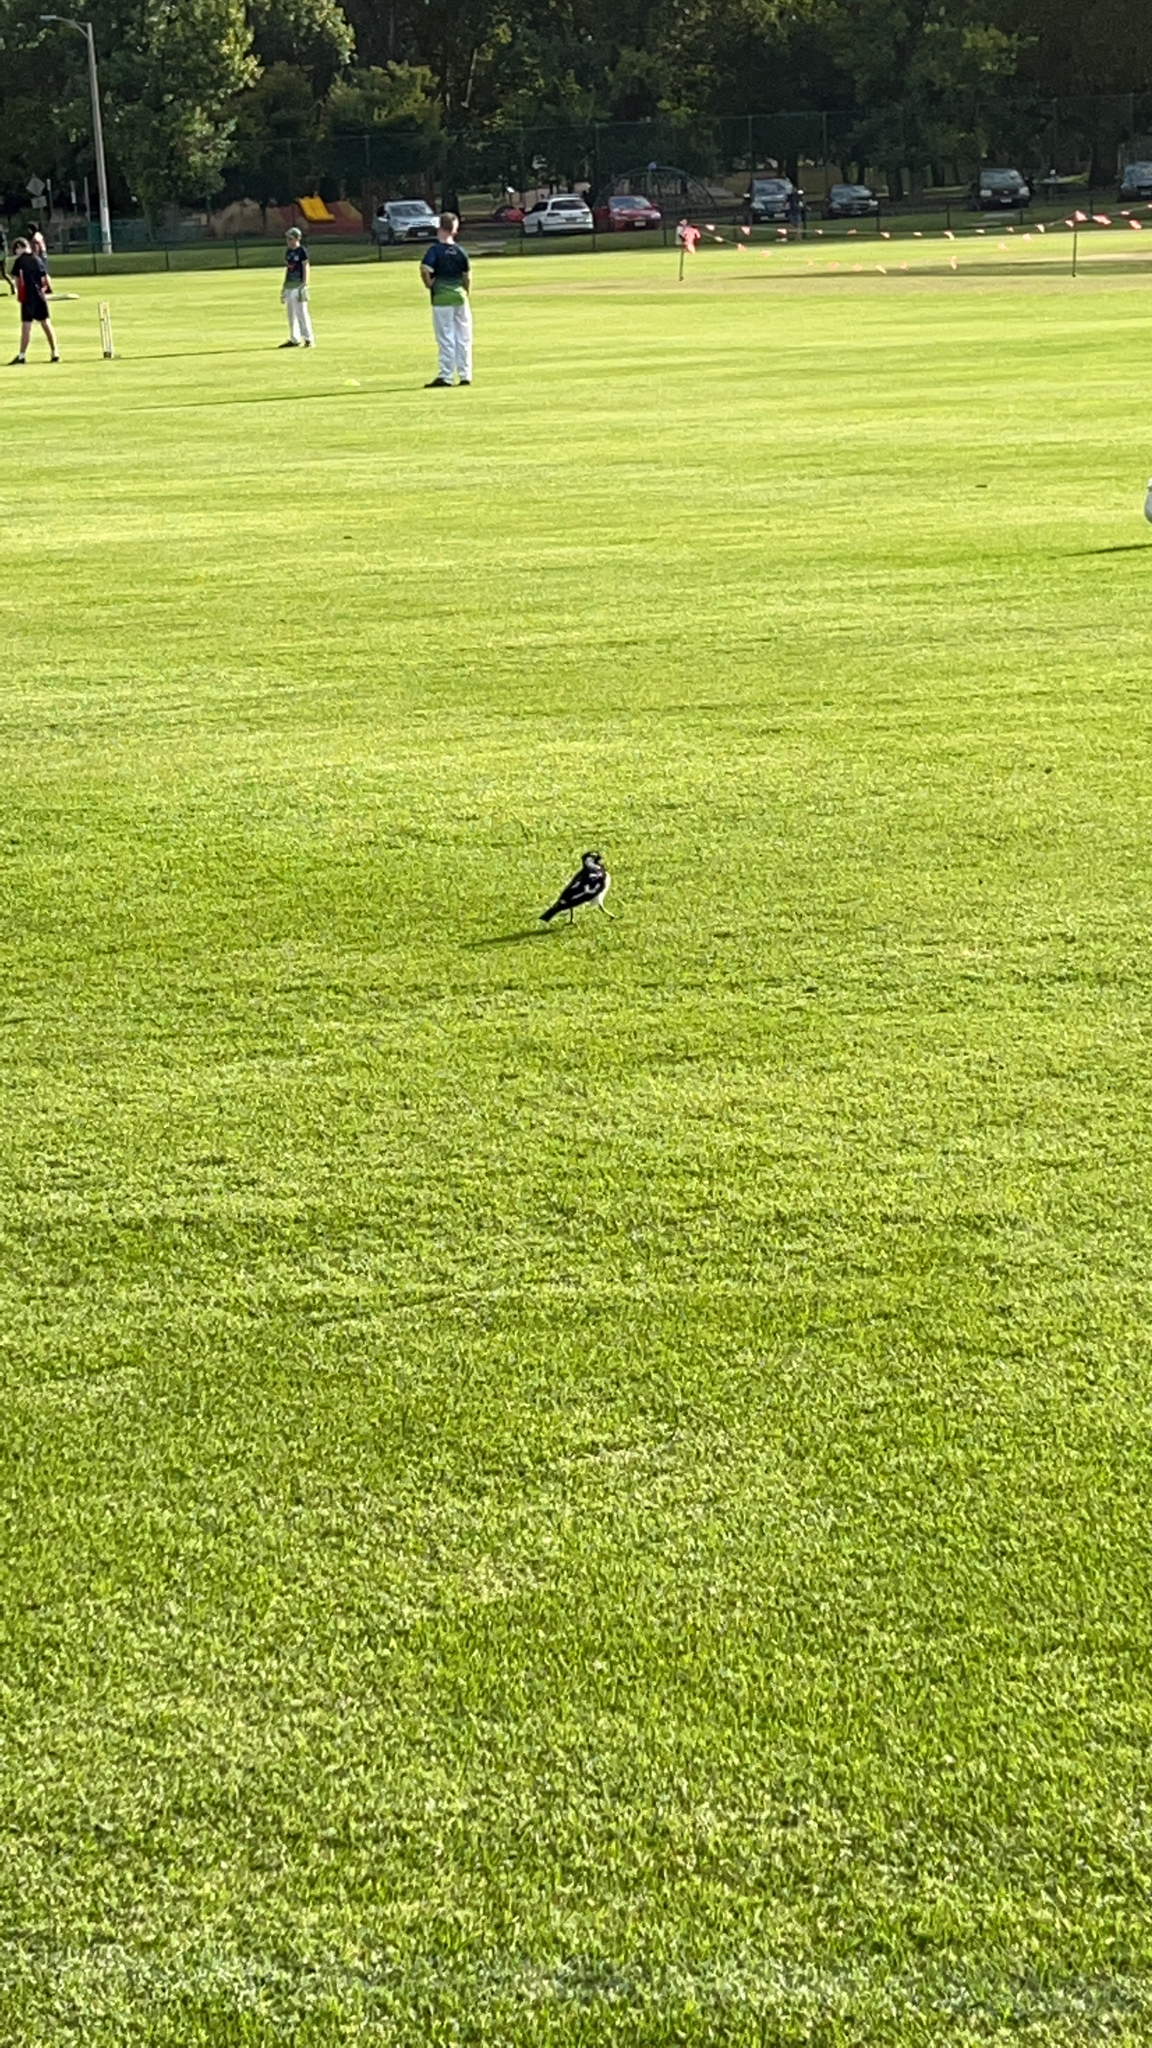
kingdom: Animalia
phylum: Chordata
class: Aves
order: Passeriformes
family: Monarchidae
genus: Grallina
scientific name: Grallina cyanoleuca
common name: Magpie-lark
